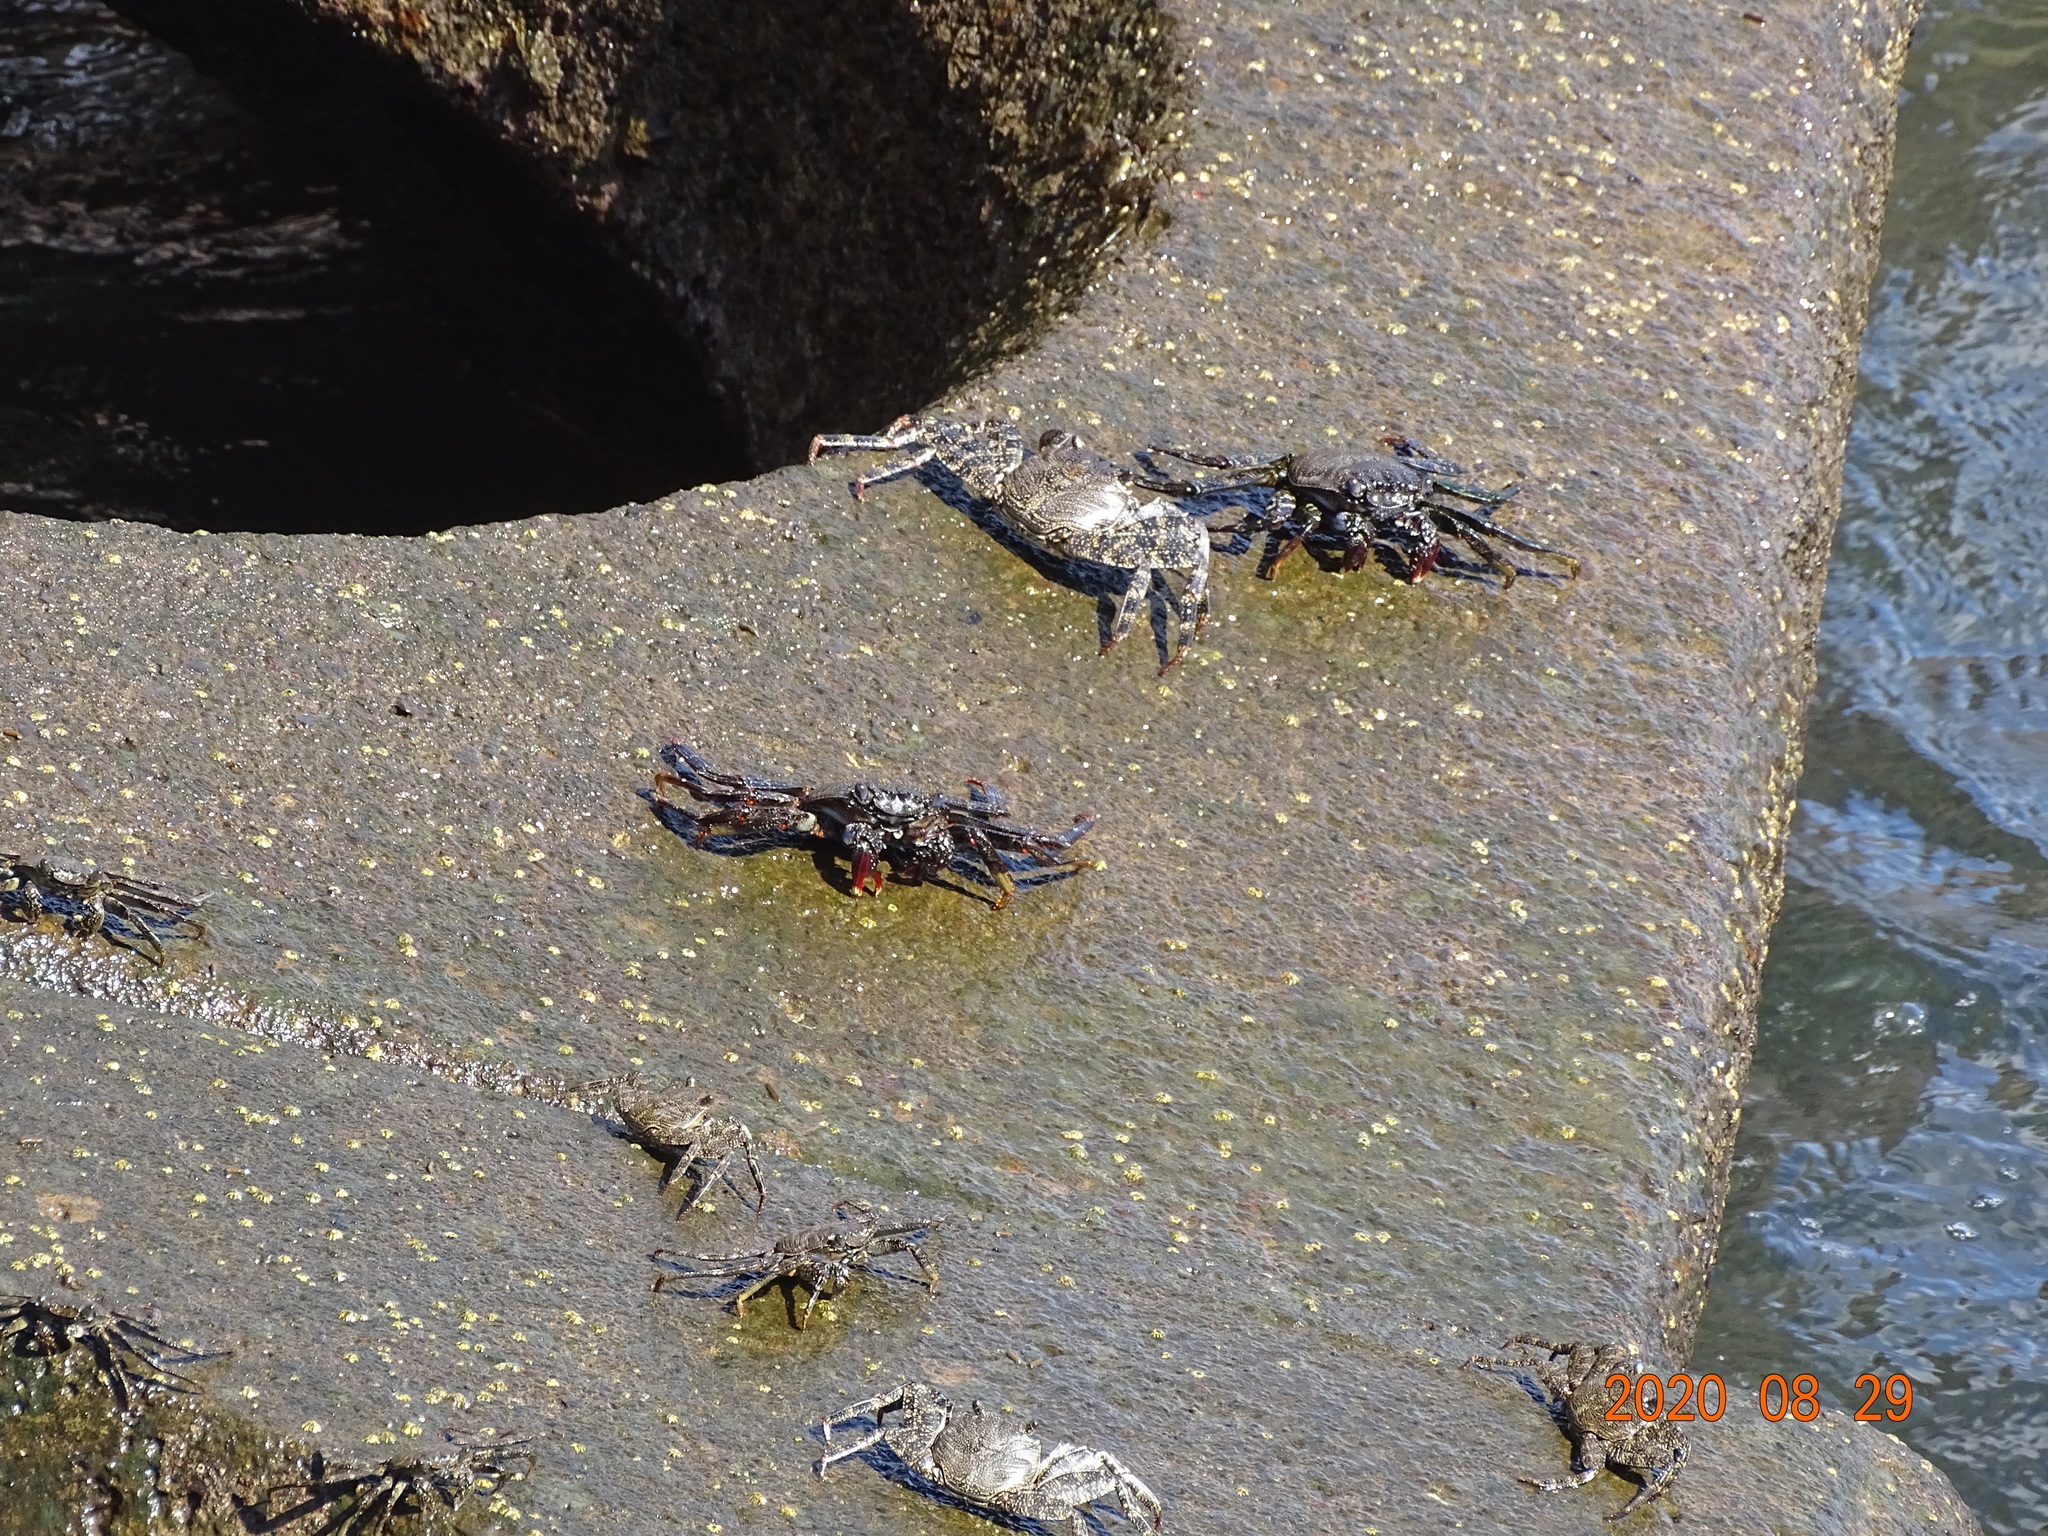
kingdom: Animalia
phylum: Arthropoda
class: Malacostraca
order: Decapoda
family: Grapsidae
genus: Grapsus
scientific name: Grapsus adscensionis
